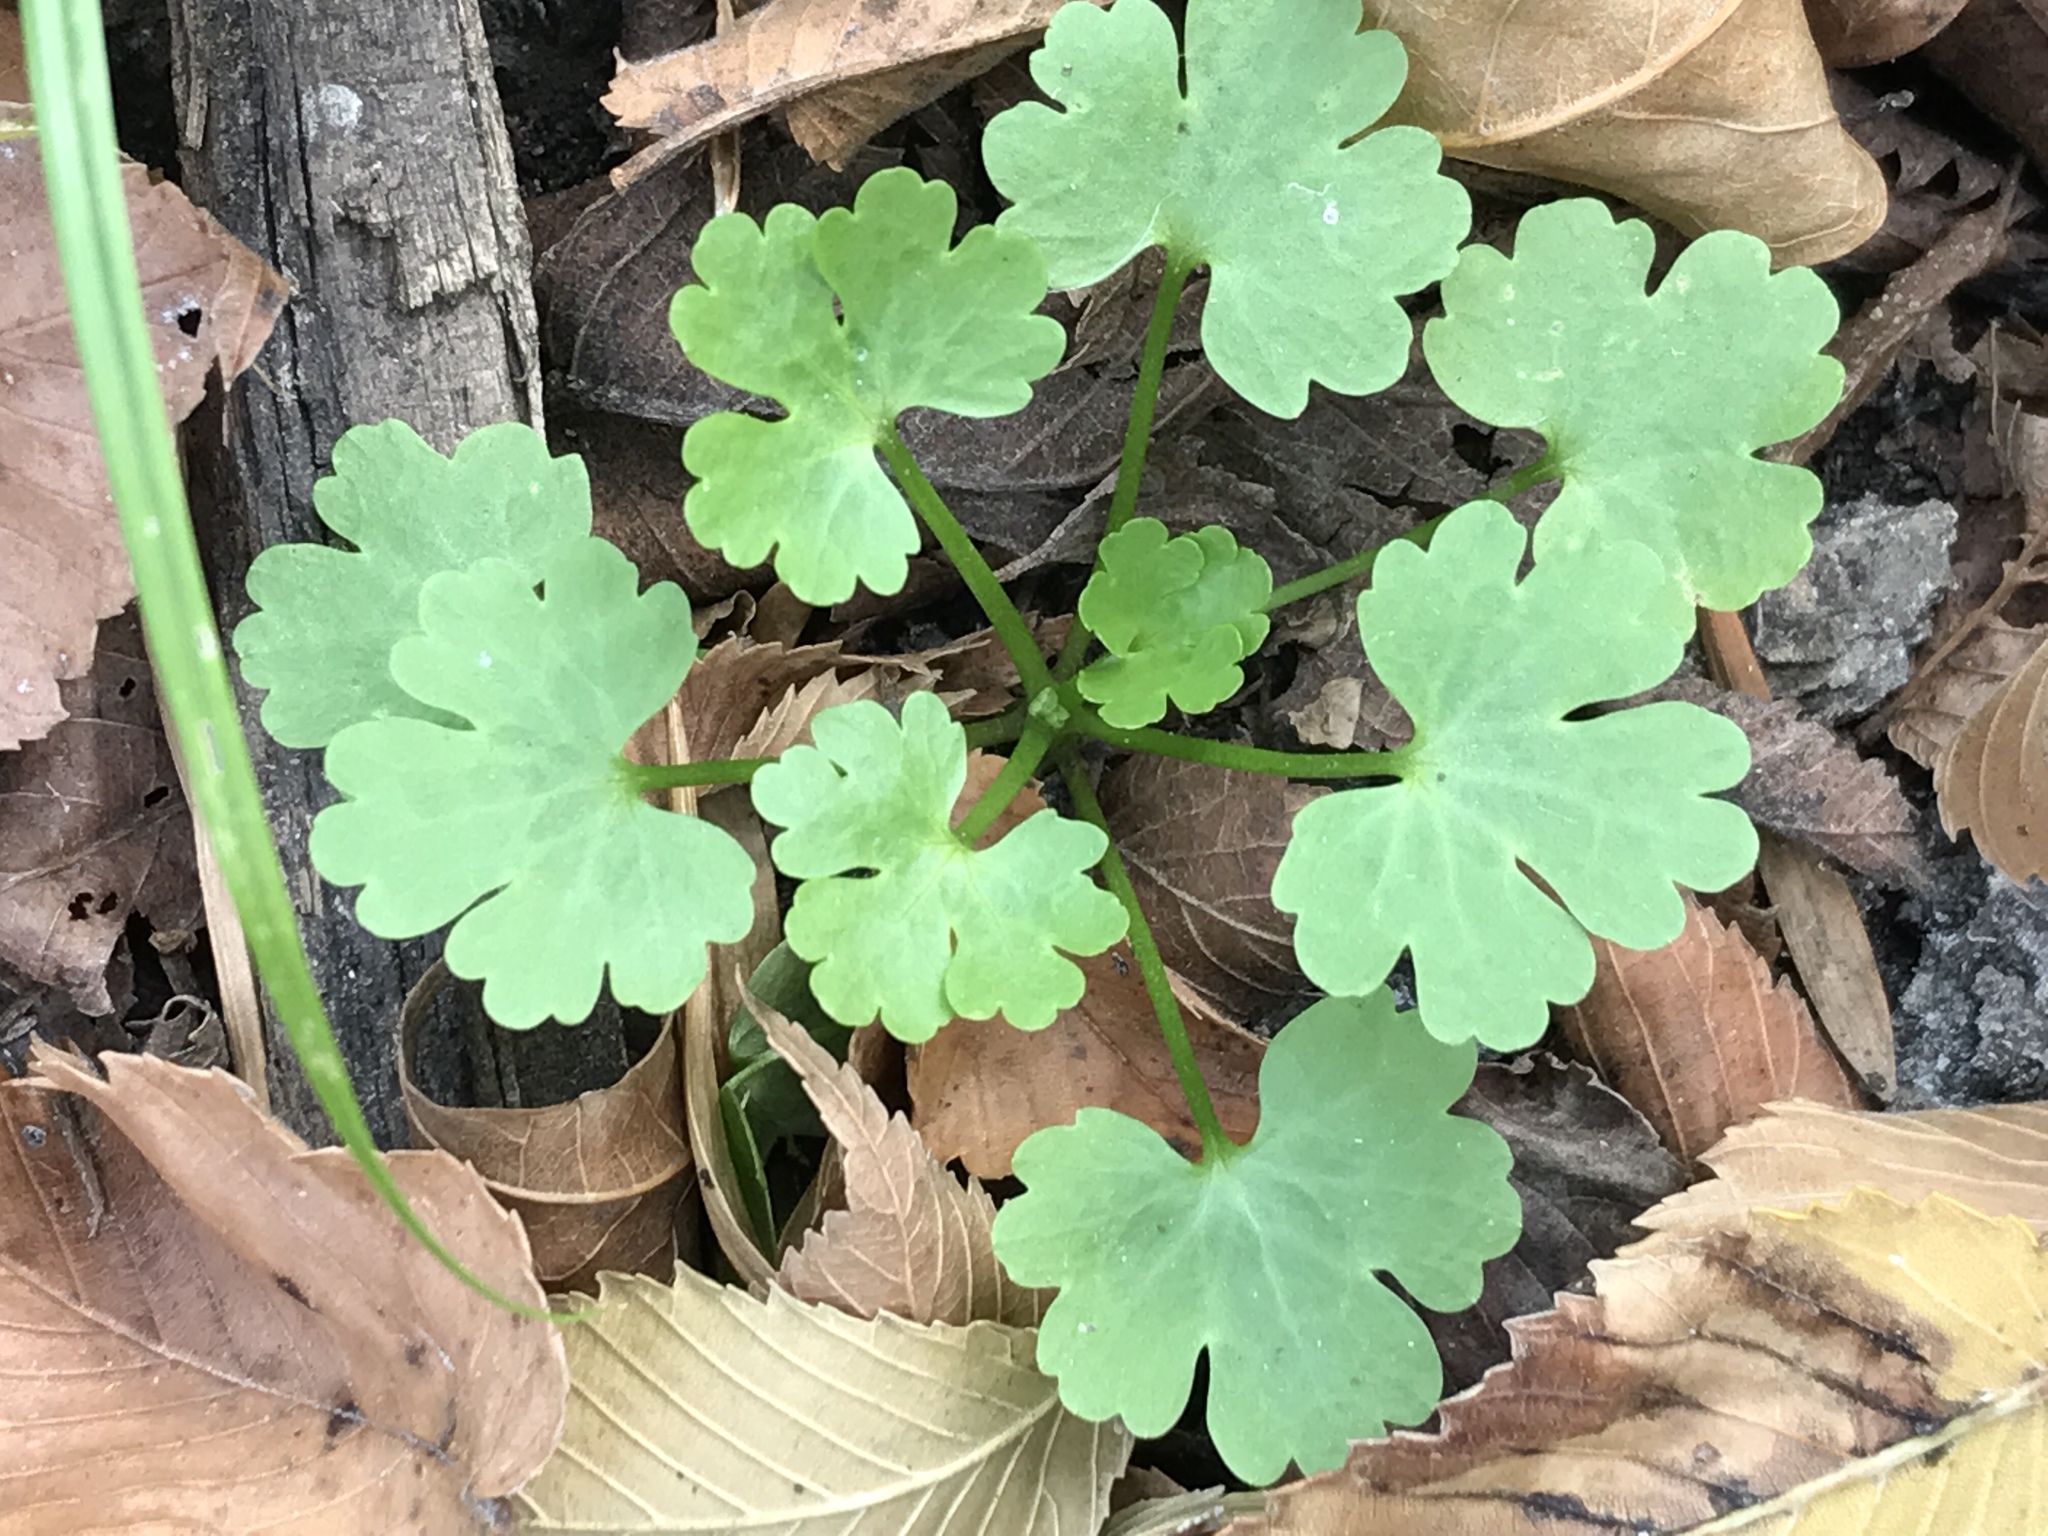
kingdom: Plantae
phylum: Tracheophyta
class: Magnoliopsida
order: Apiales
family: Apiaceae
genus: Bowlesia
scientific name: Bowlesia incana
